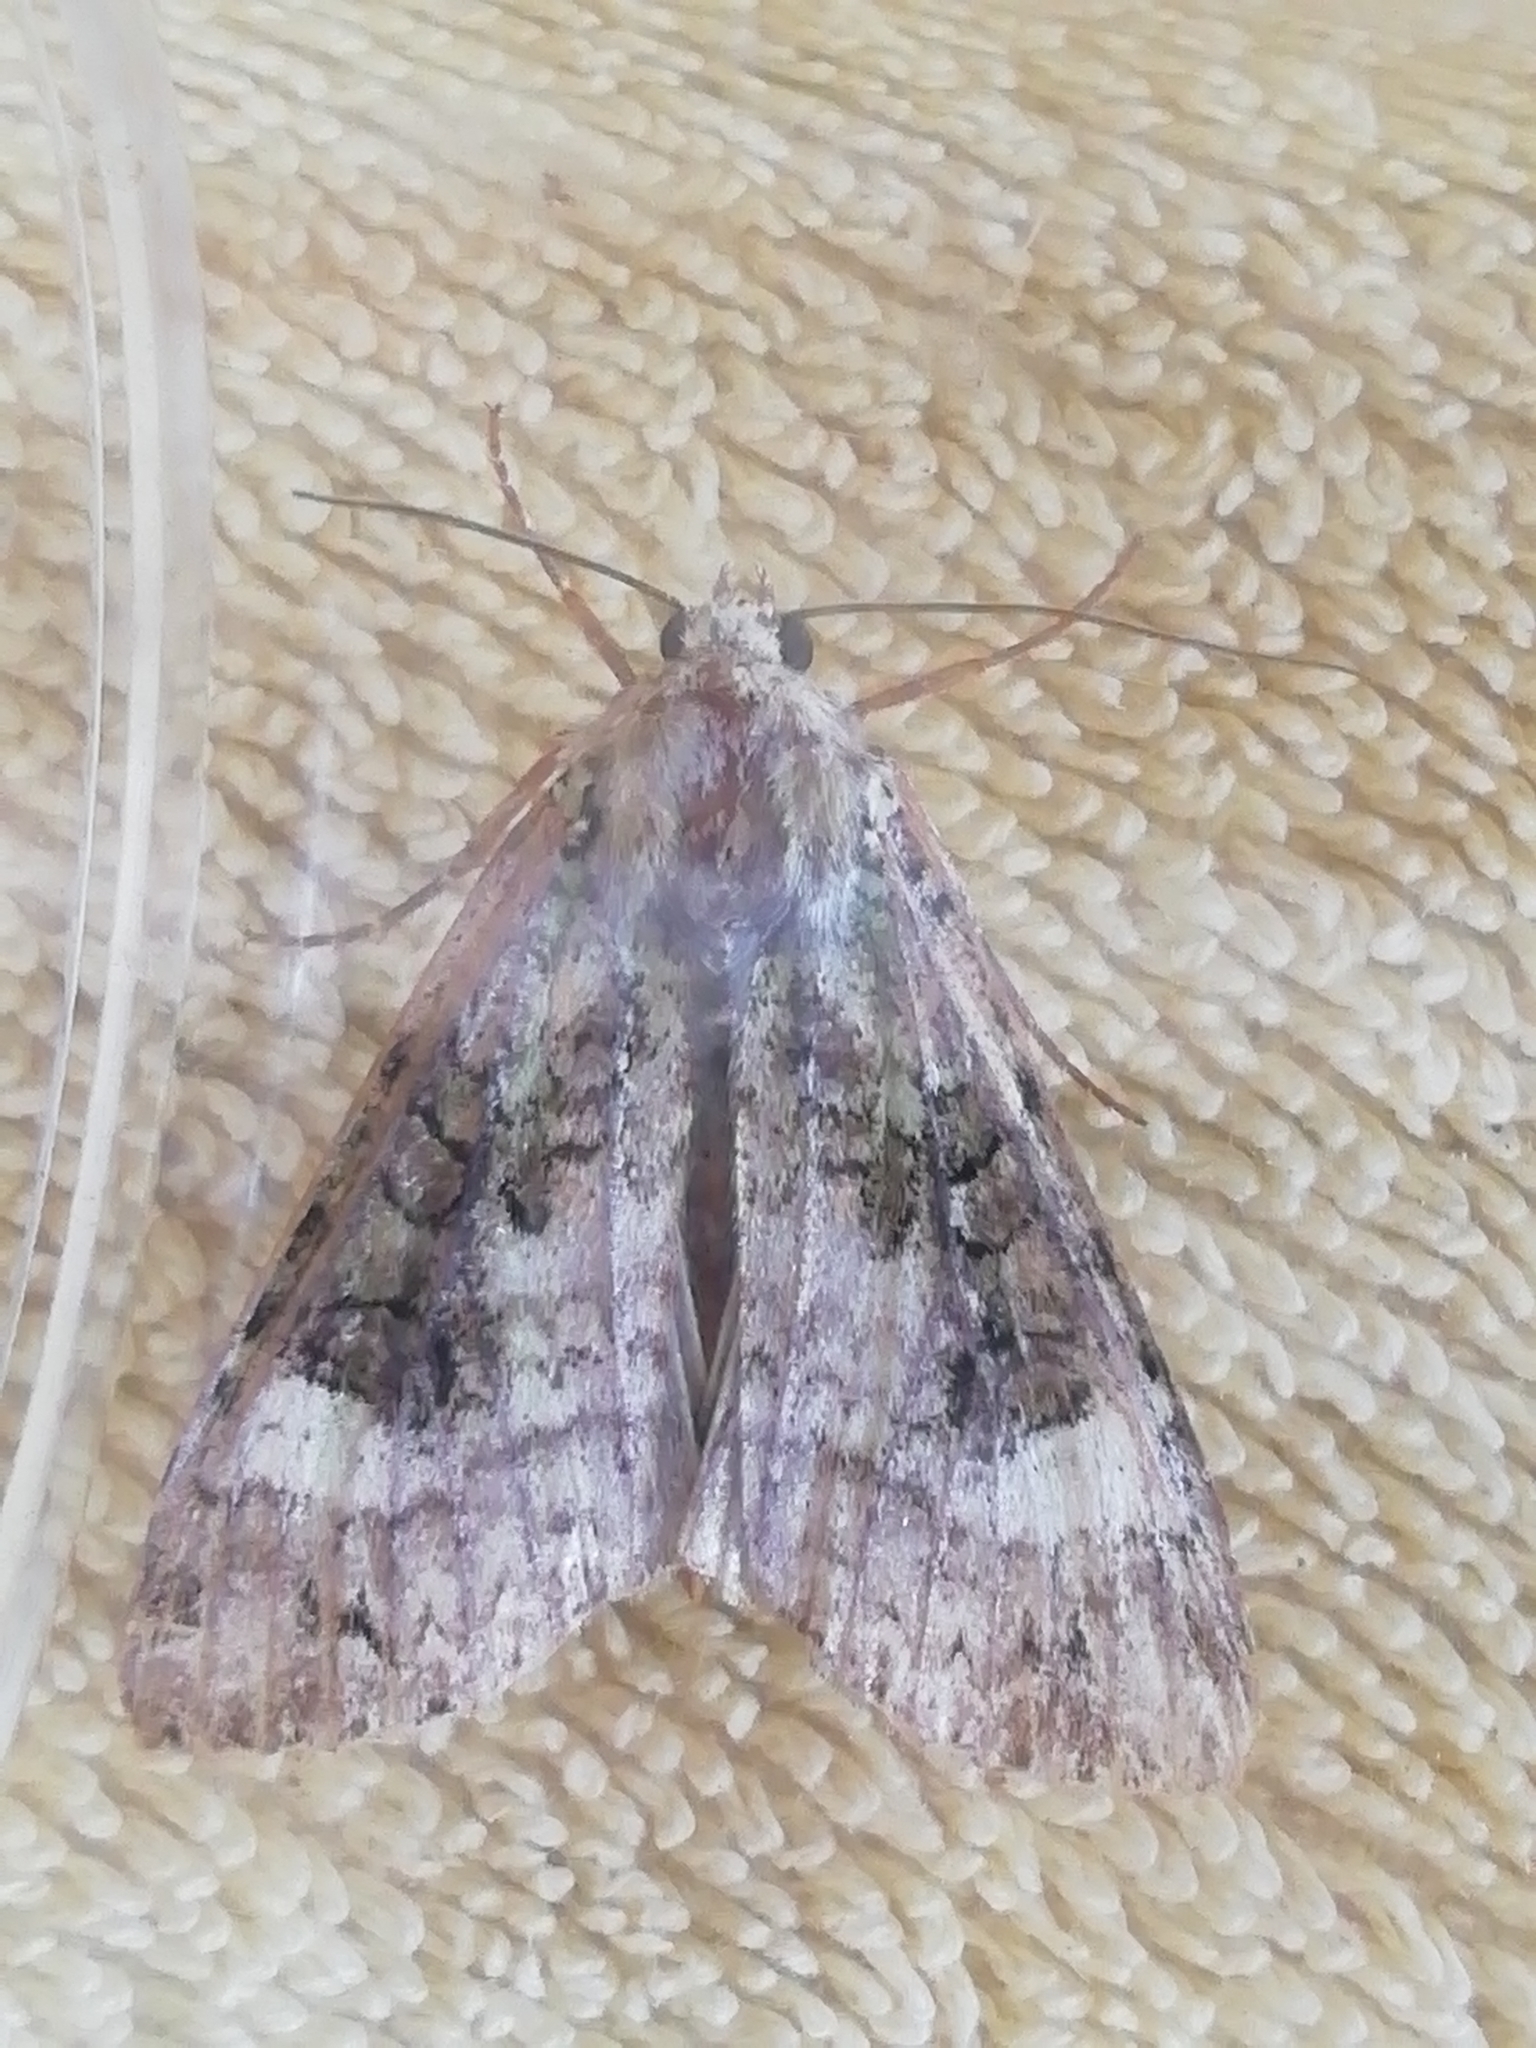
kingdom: Animalia
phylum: Arthropoda
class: Insecta
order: Lepidoptera
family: Noctuidae
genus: Anaplectoides
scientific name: Anaplectoides prasina
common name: Green arches
